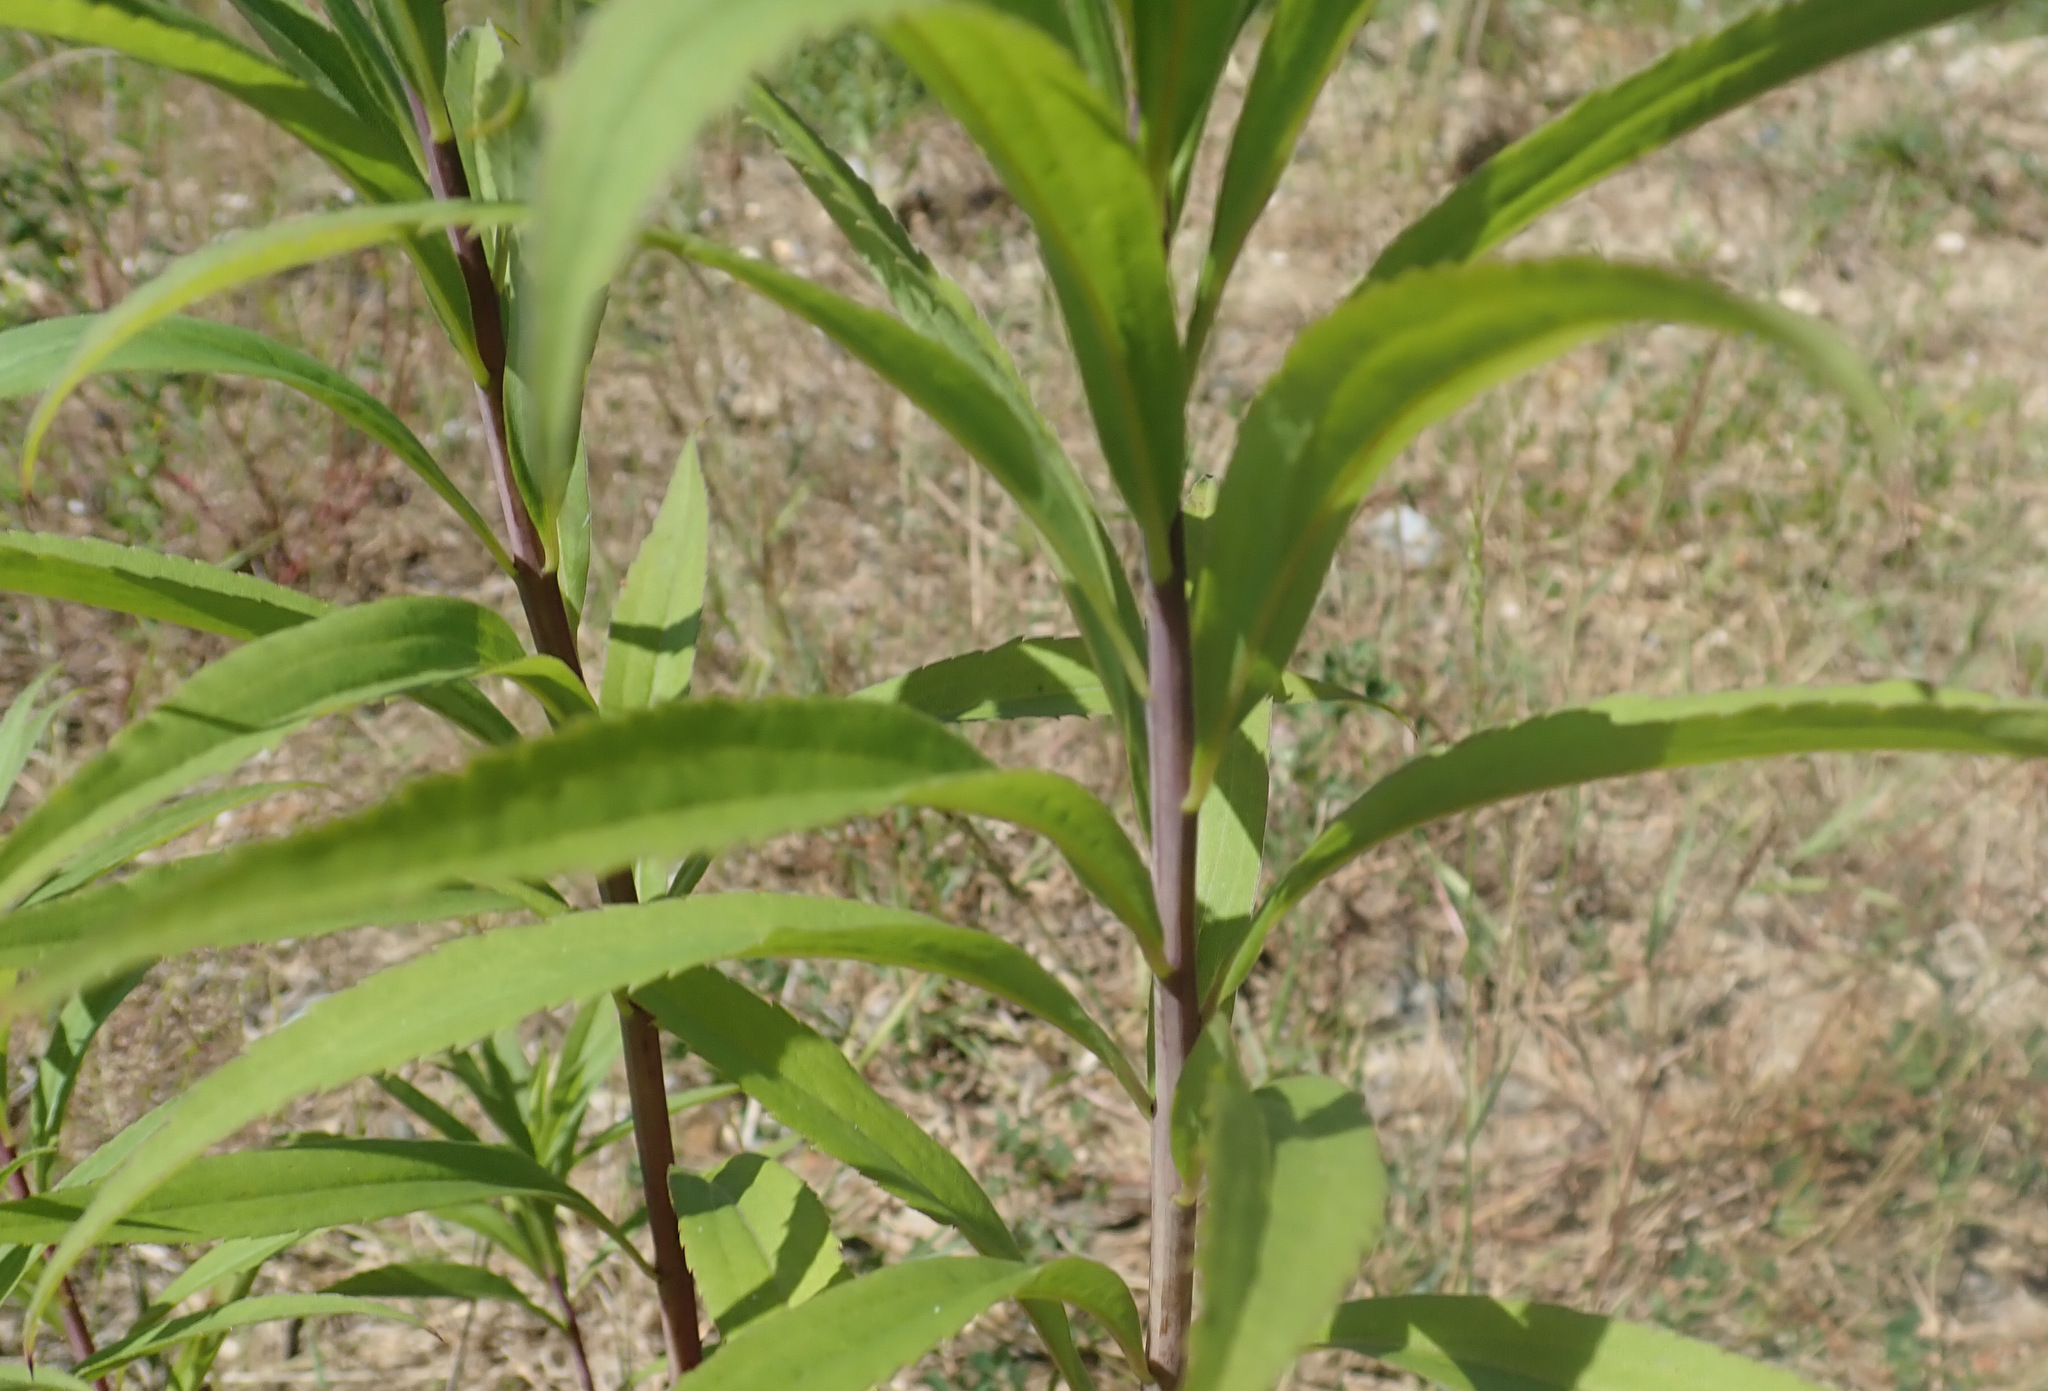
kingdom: Plantae
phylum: Tracheophyta
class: Magnoliopsida
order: Asterales
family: Asteraceae
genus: Solidago
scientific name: Solidago gigantea
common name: Giant goldenrod
